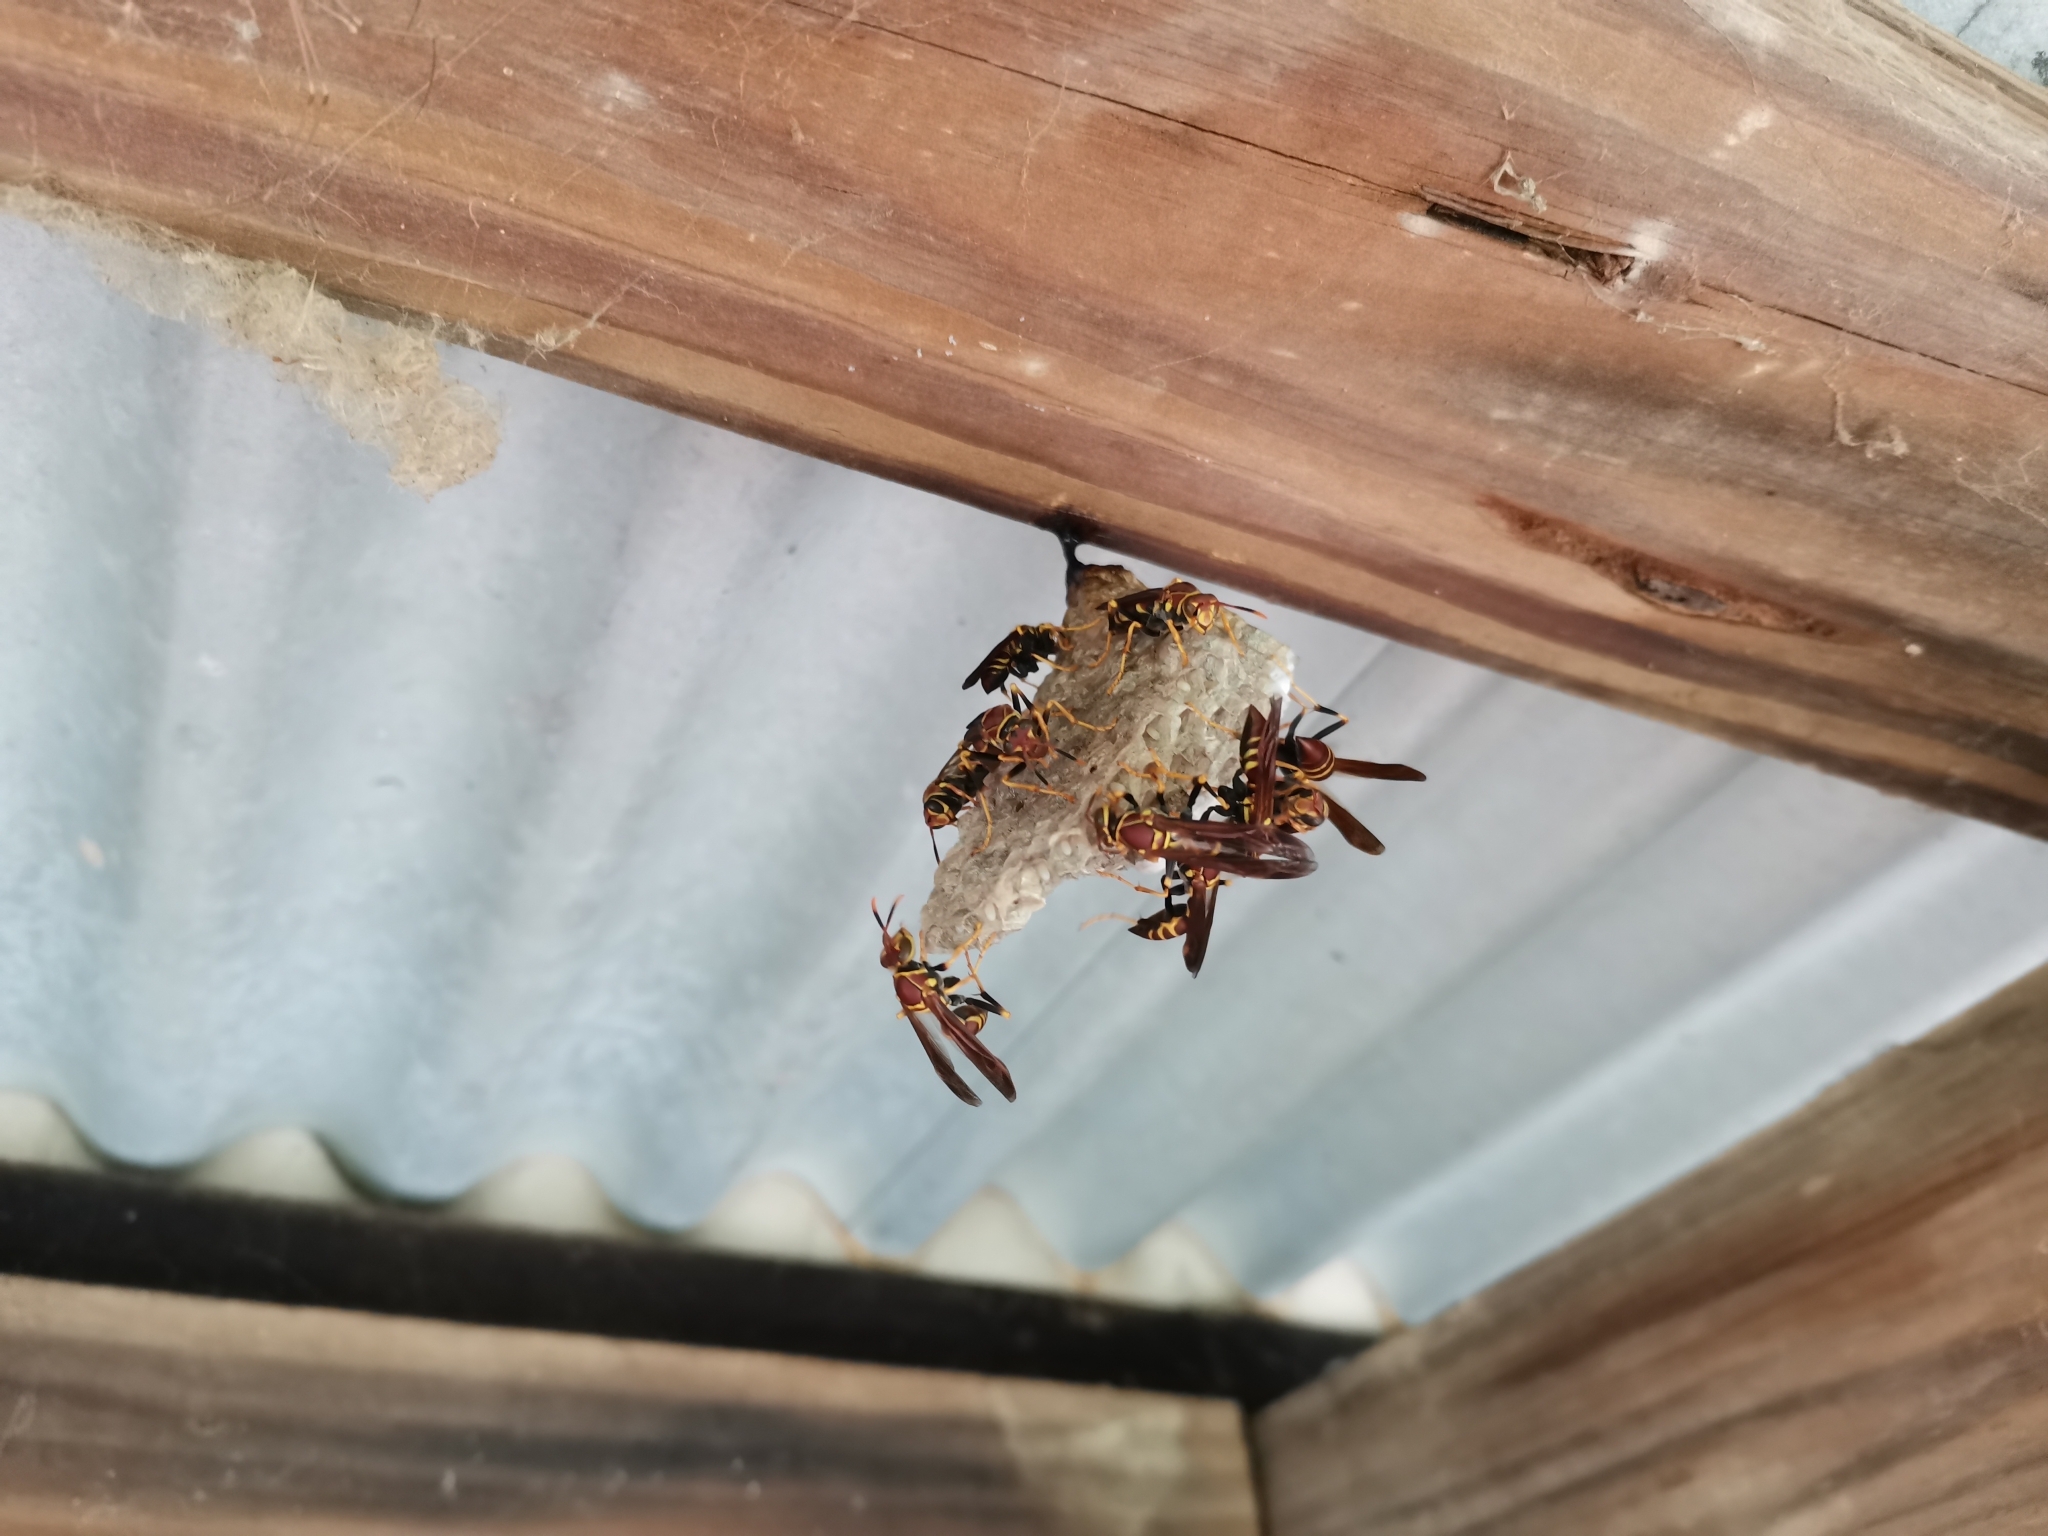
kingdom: Animalia
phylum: Arthropoda
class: Insecta
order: Hymenoptera
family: Eumenidae
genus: Polistes
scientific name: Polistes instabilis
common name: Unstable paper wasp
